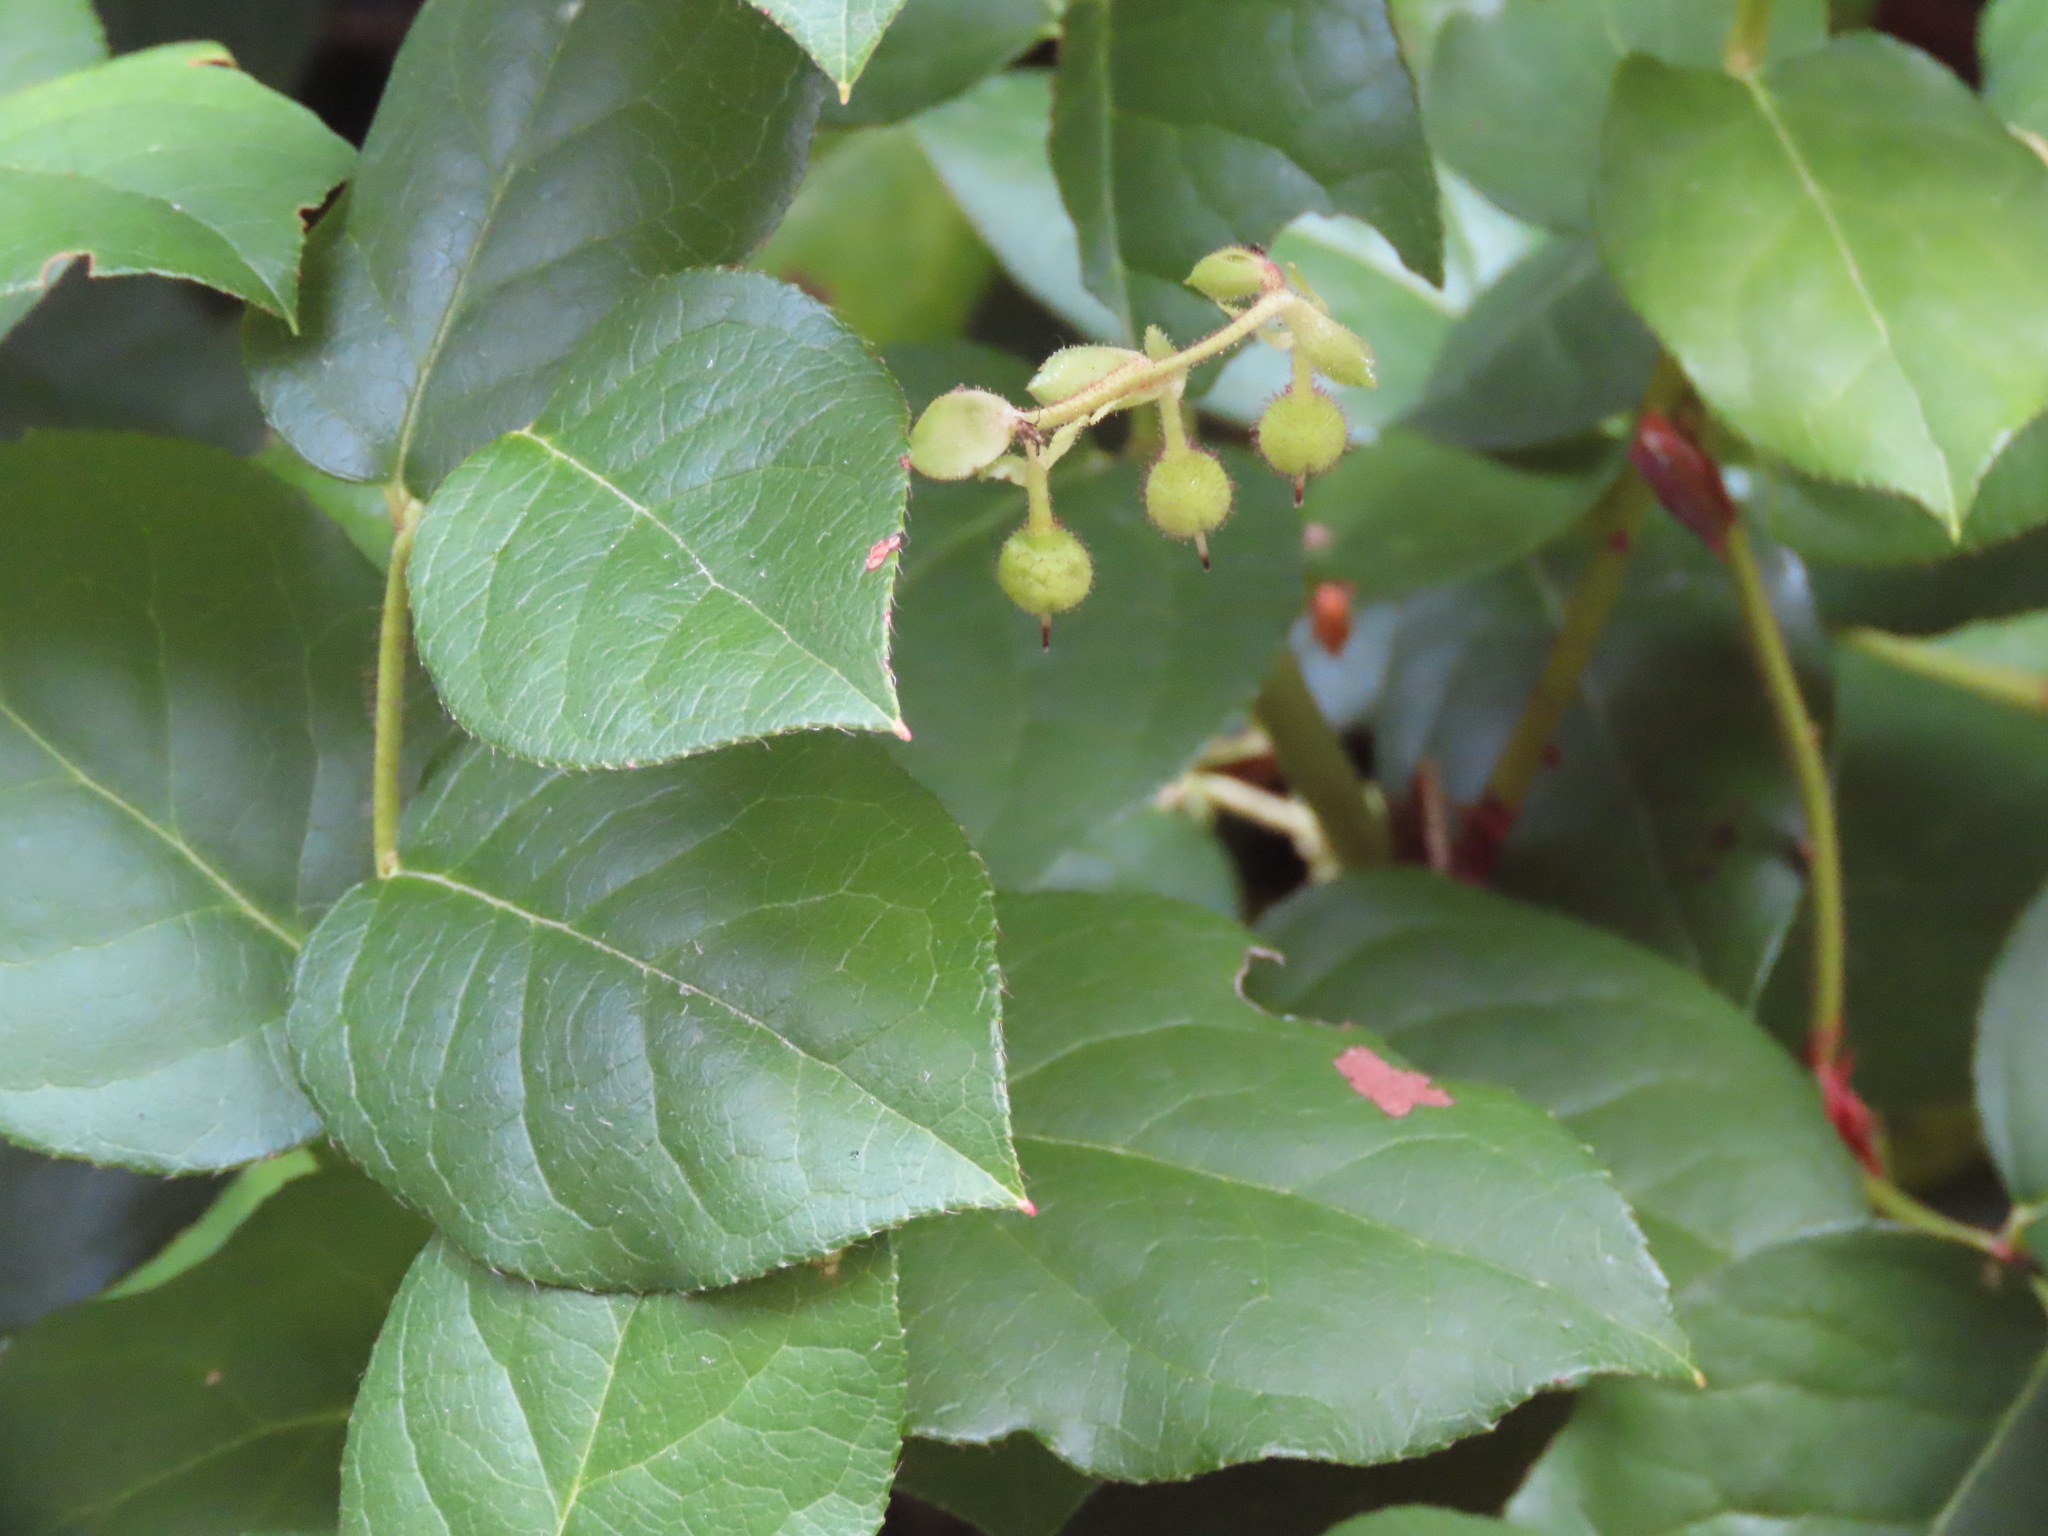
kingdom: Plantae
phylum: Tracheophyta
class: Magnoliopsida
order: Ericales
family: Ericaceae
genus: Gaultheria
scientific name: Gaultheria shallon
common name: Shallon
